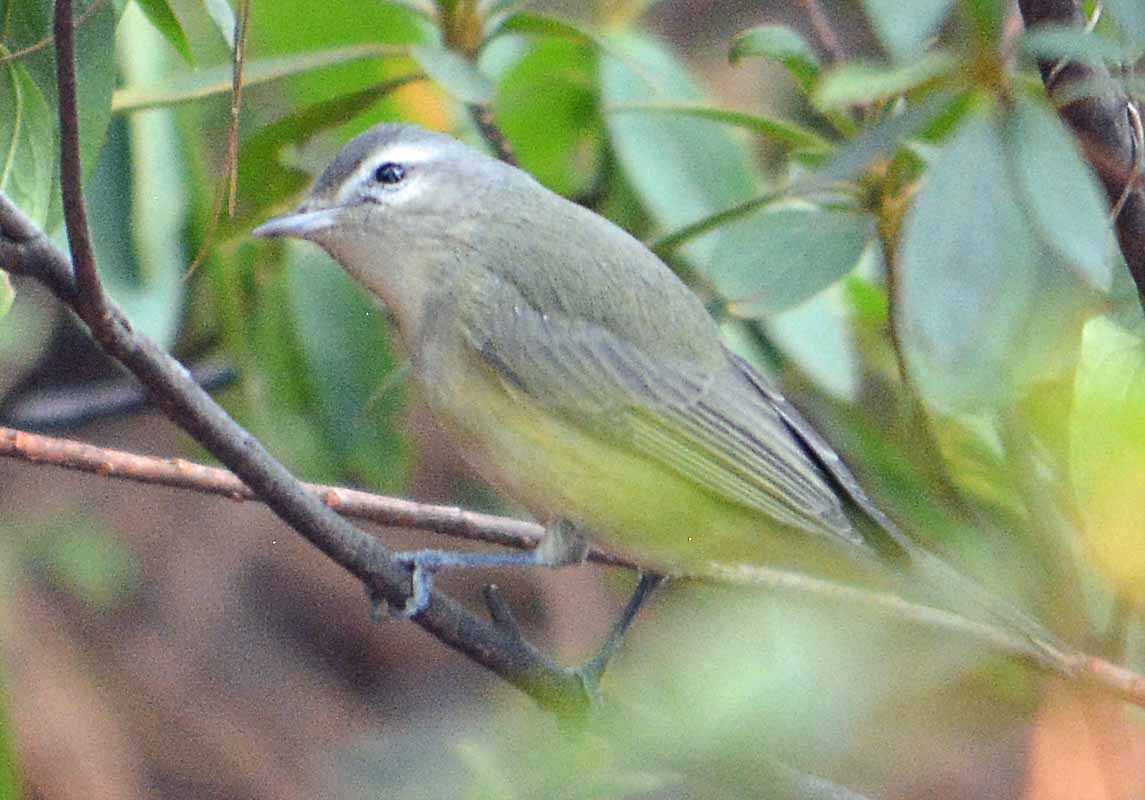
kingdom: Animalia
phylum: Chordata
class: Aves
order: Passeriformes
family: Vireonidae
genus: Vireo
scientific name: Vireo gilvus
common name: Warbling vireo
